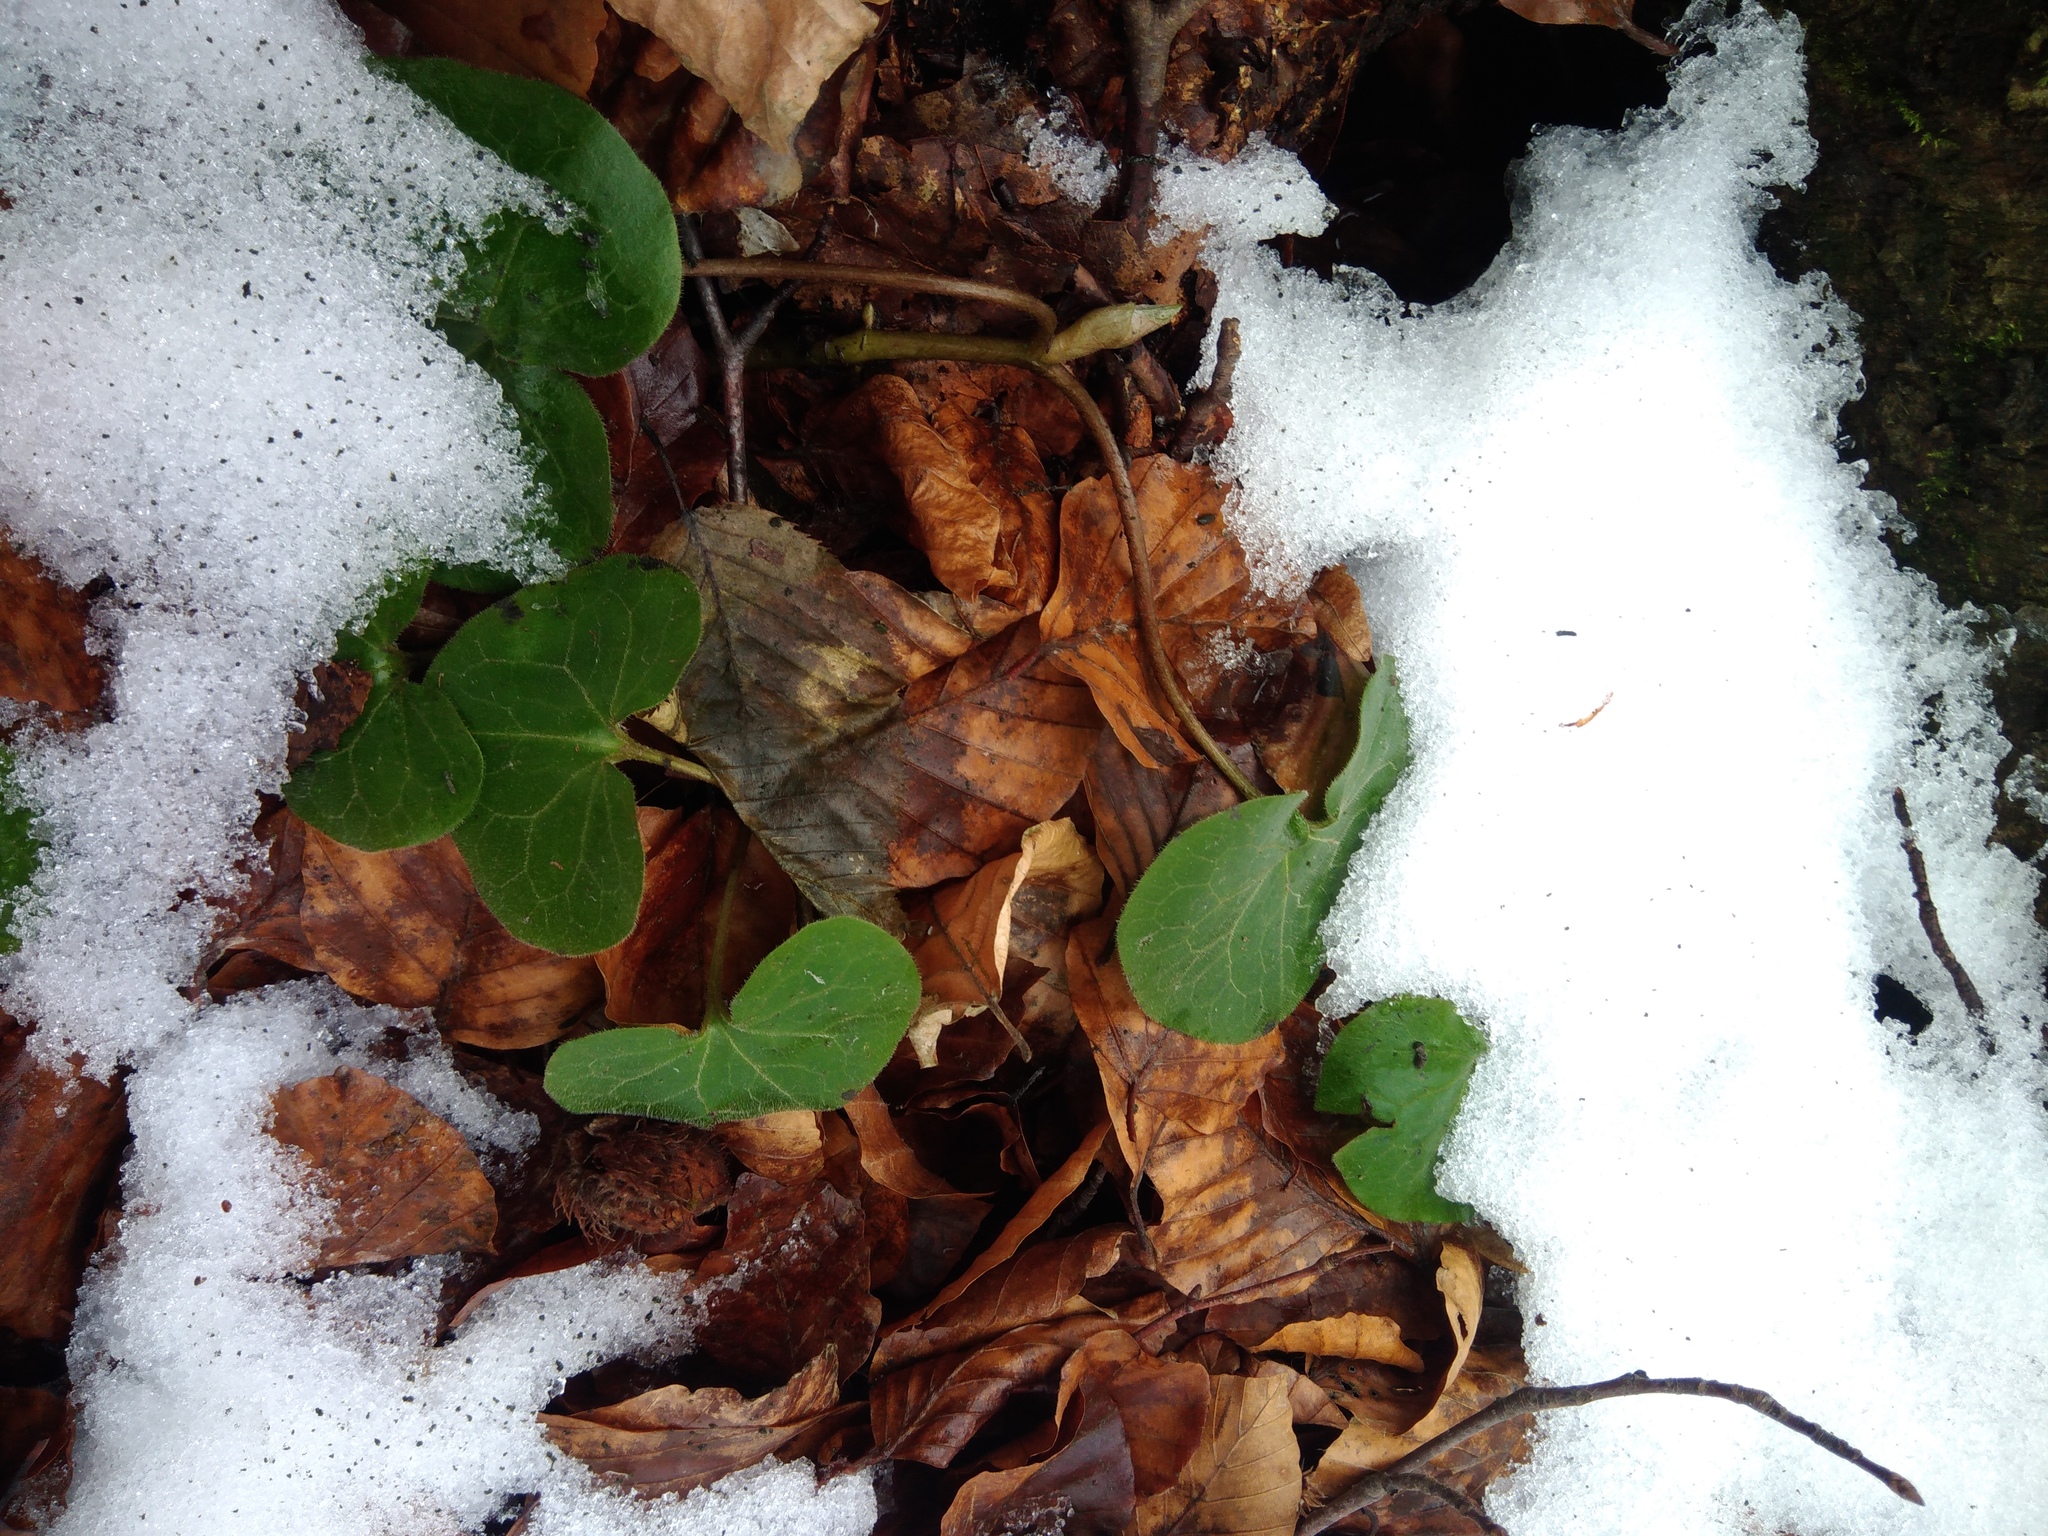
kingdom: Plantae
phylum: Tracheophyta
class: Magnoliopsida
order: Piperales
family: Aristolochiaceae
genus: Asarum
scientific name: Asarum europaeum
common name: Asarabacca
